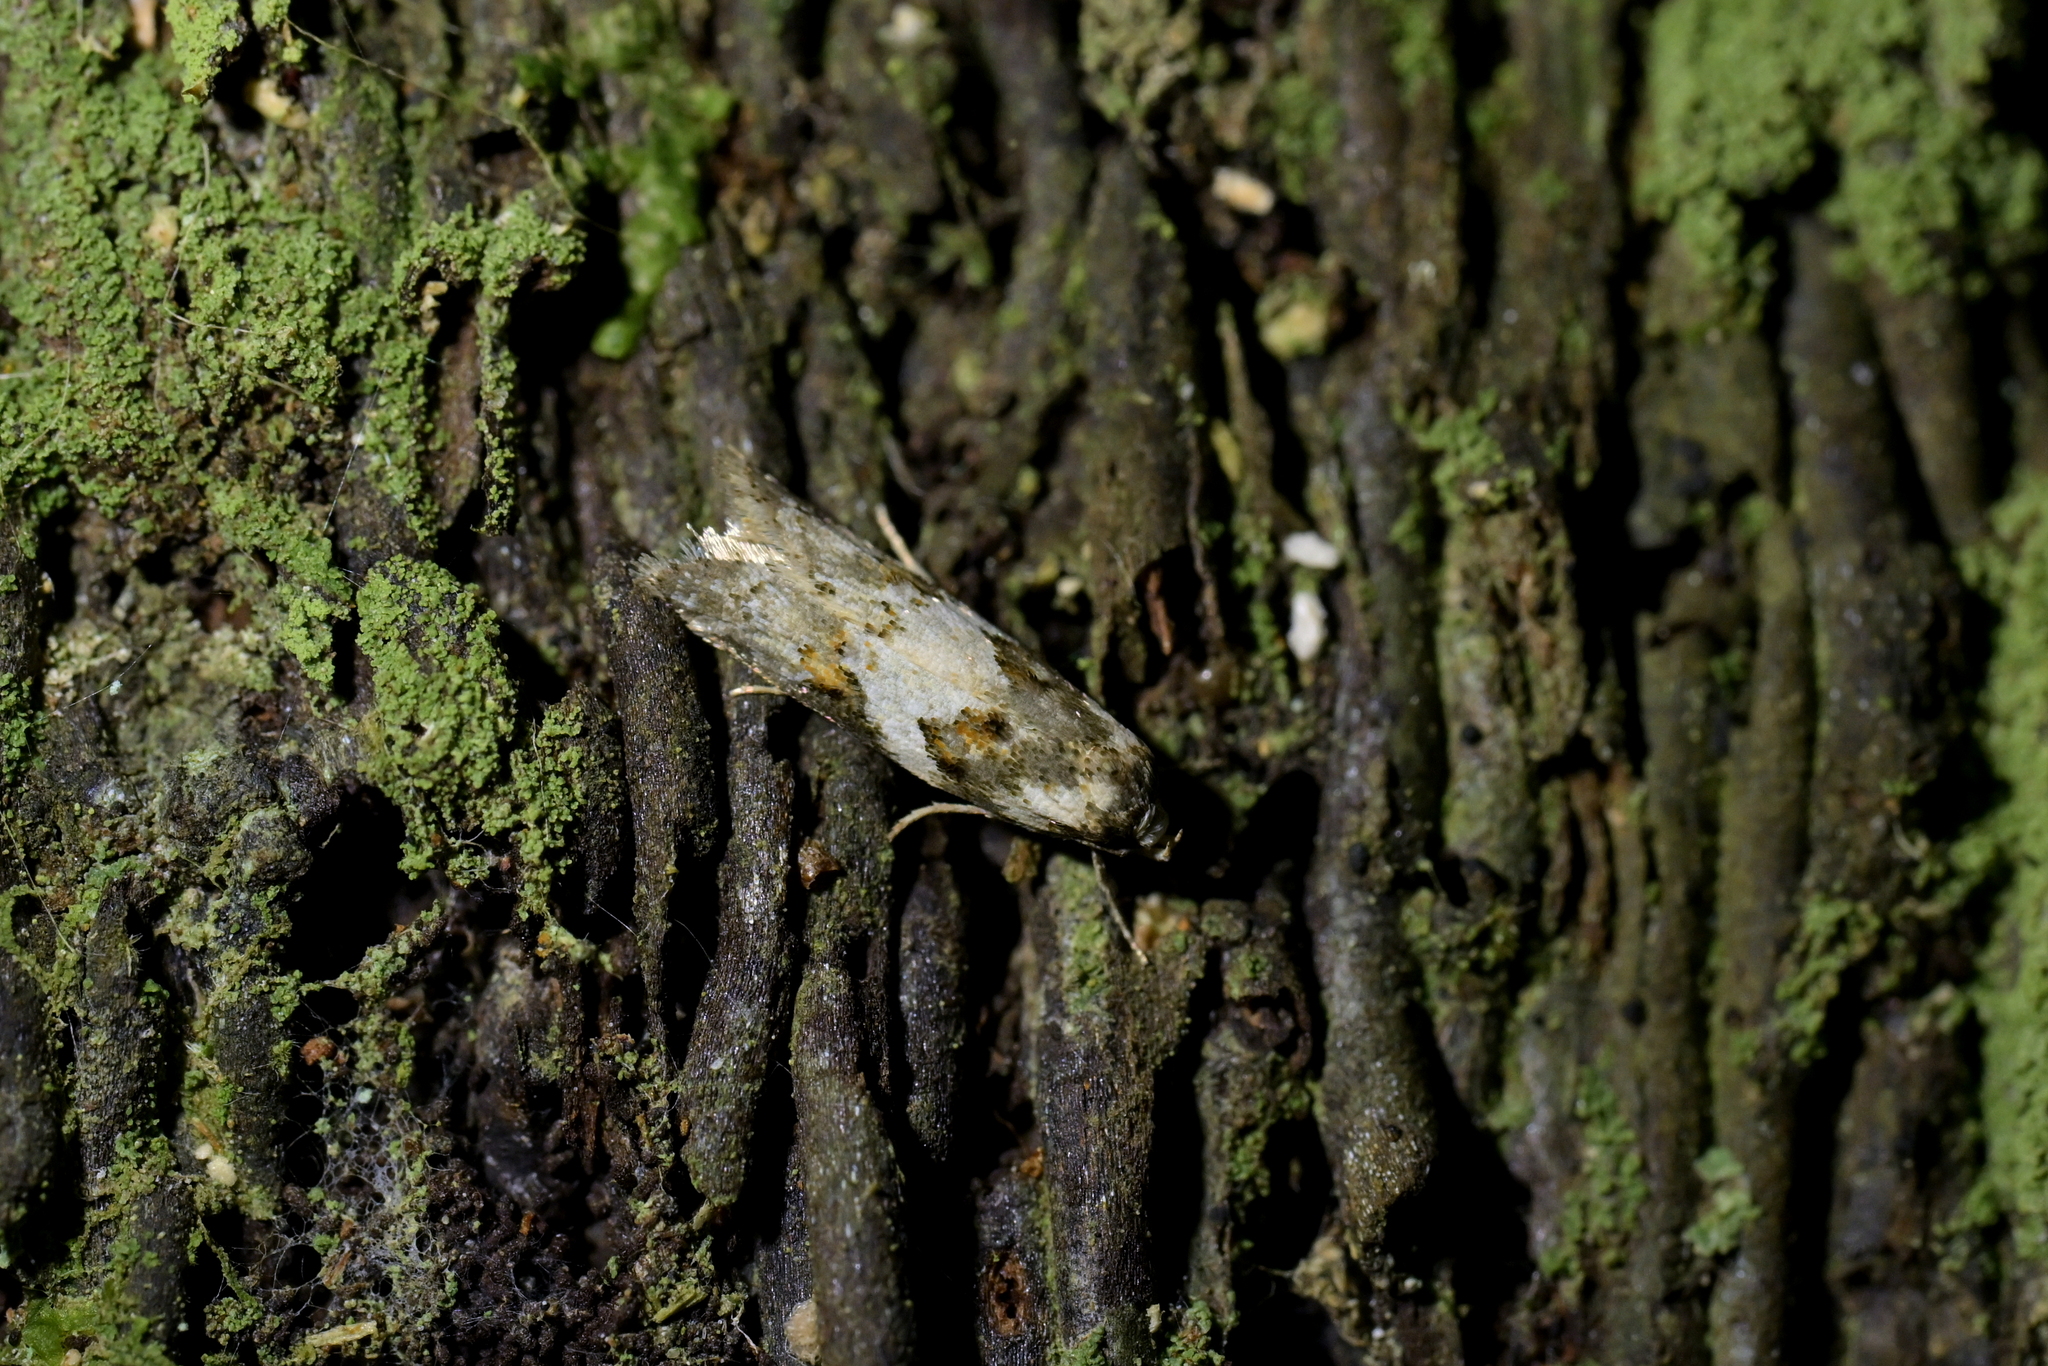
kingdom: Animalia
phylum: Arthropoda
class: Insecta
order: Lepidoptera
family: Oecophoridae
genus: Trachypepla
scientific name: Trachypepla galaxias
